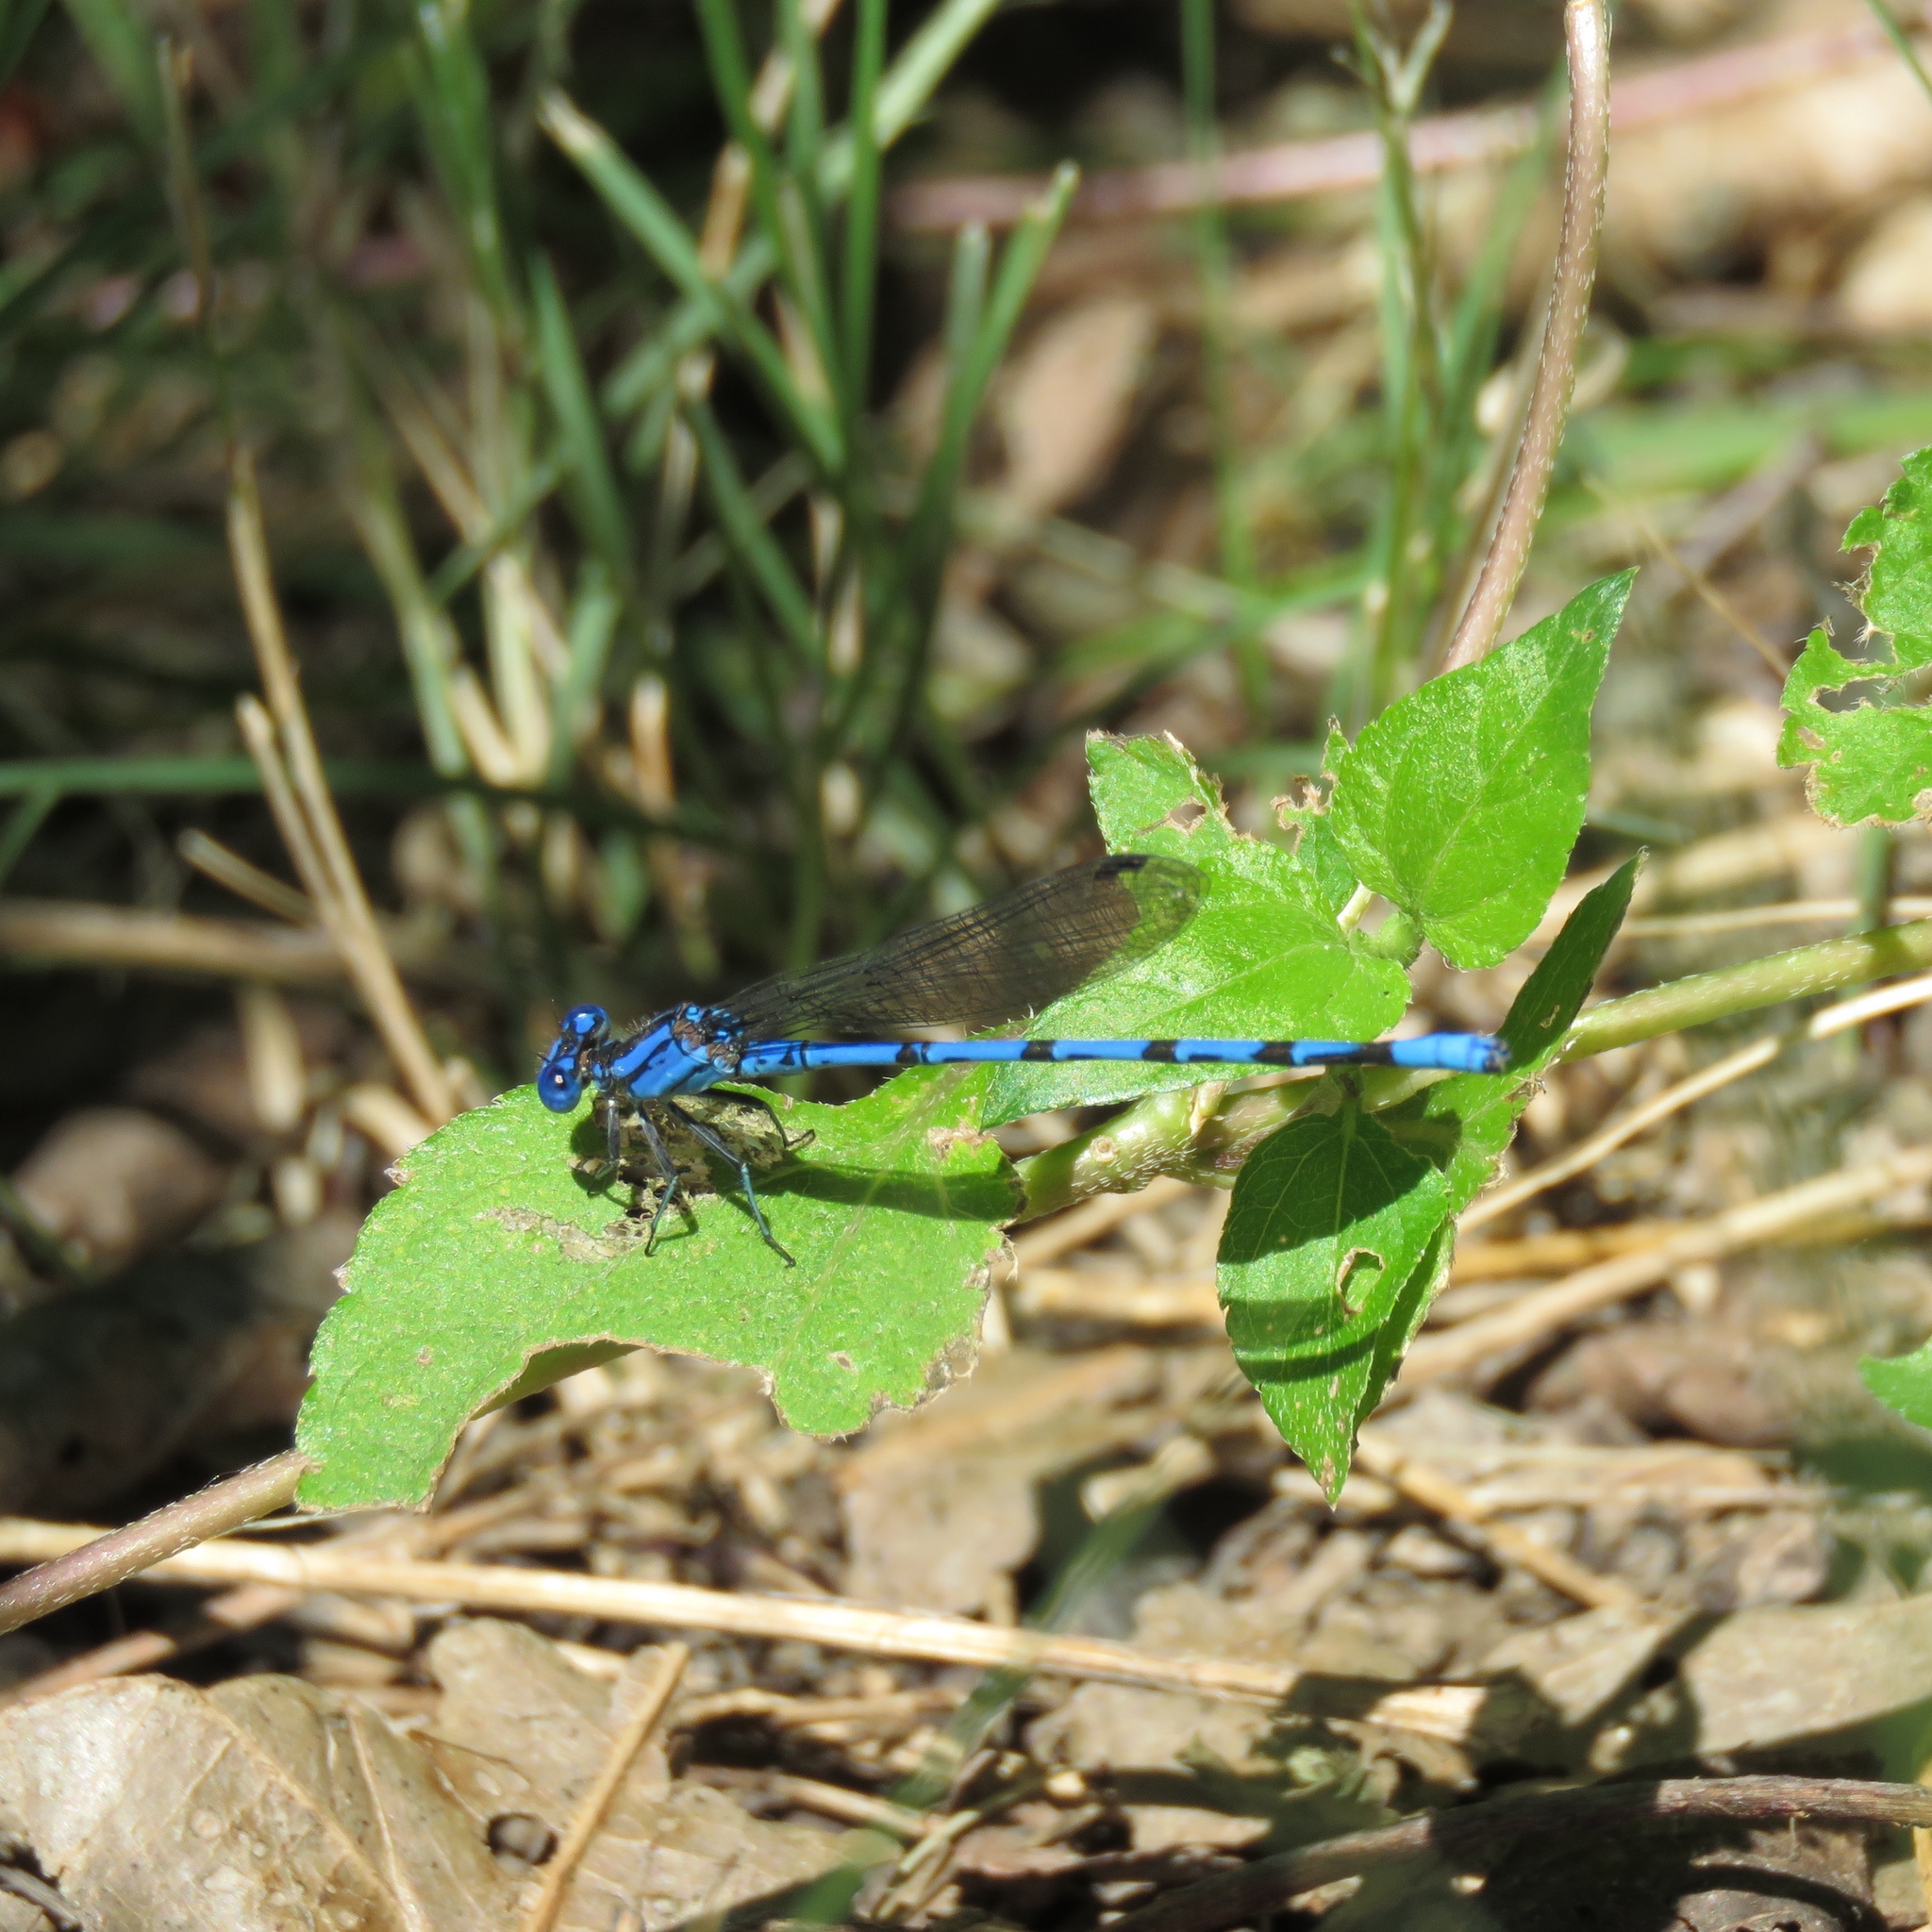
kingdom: Animalia
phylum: Arthropoda
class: Insecta
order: Odonata
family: Coenagrionidae
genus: Argia
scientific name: Argia funebris
